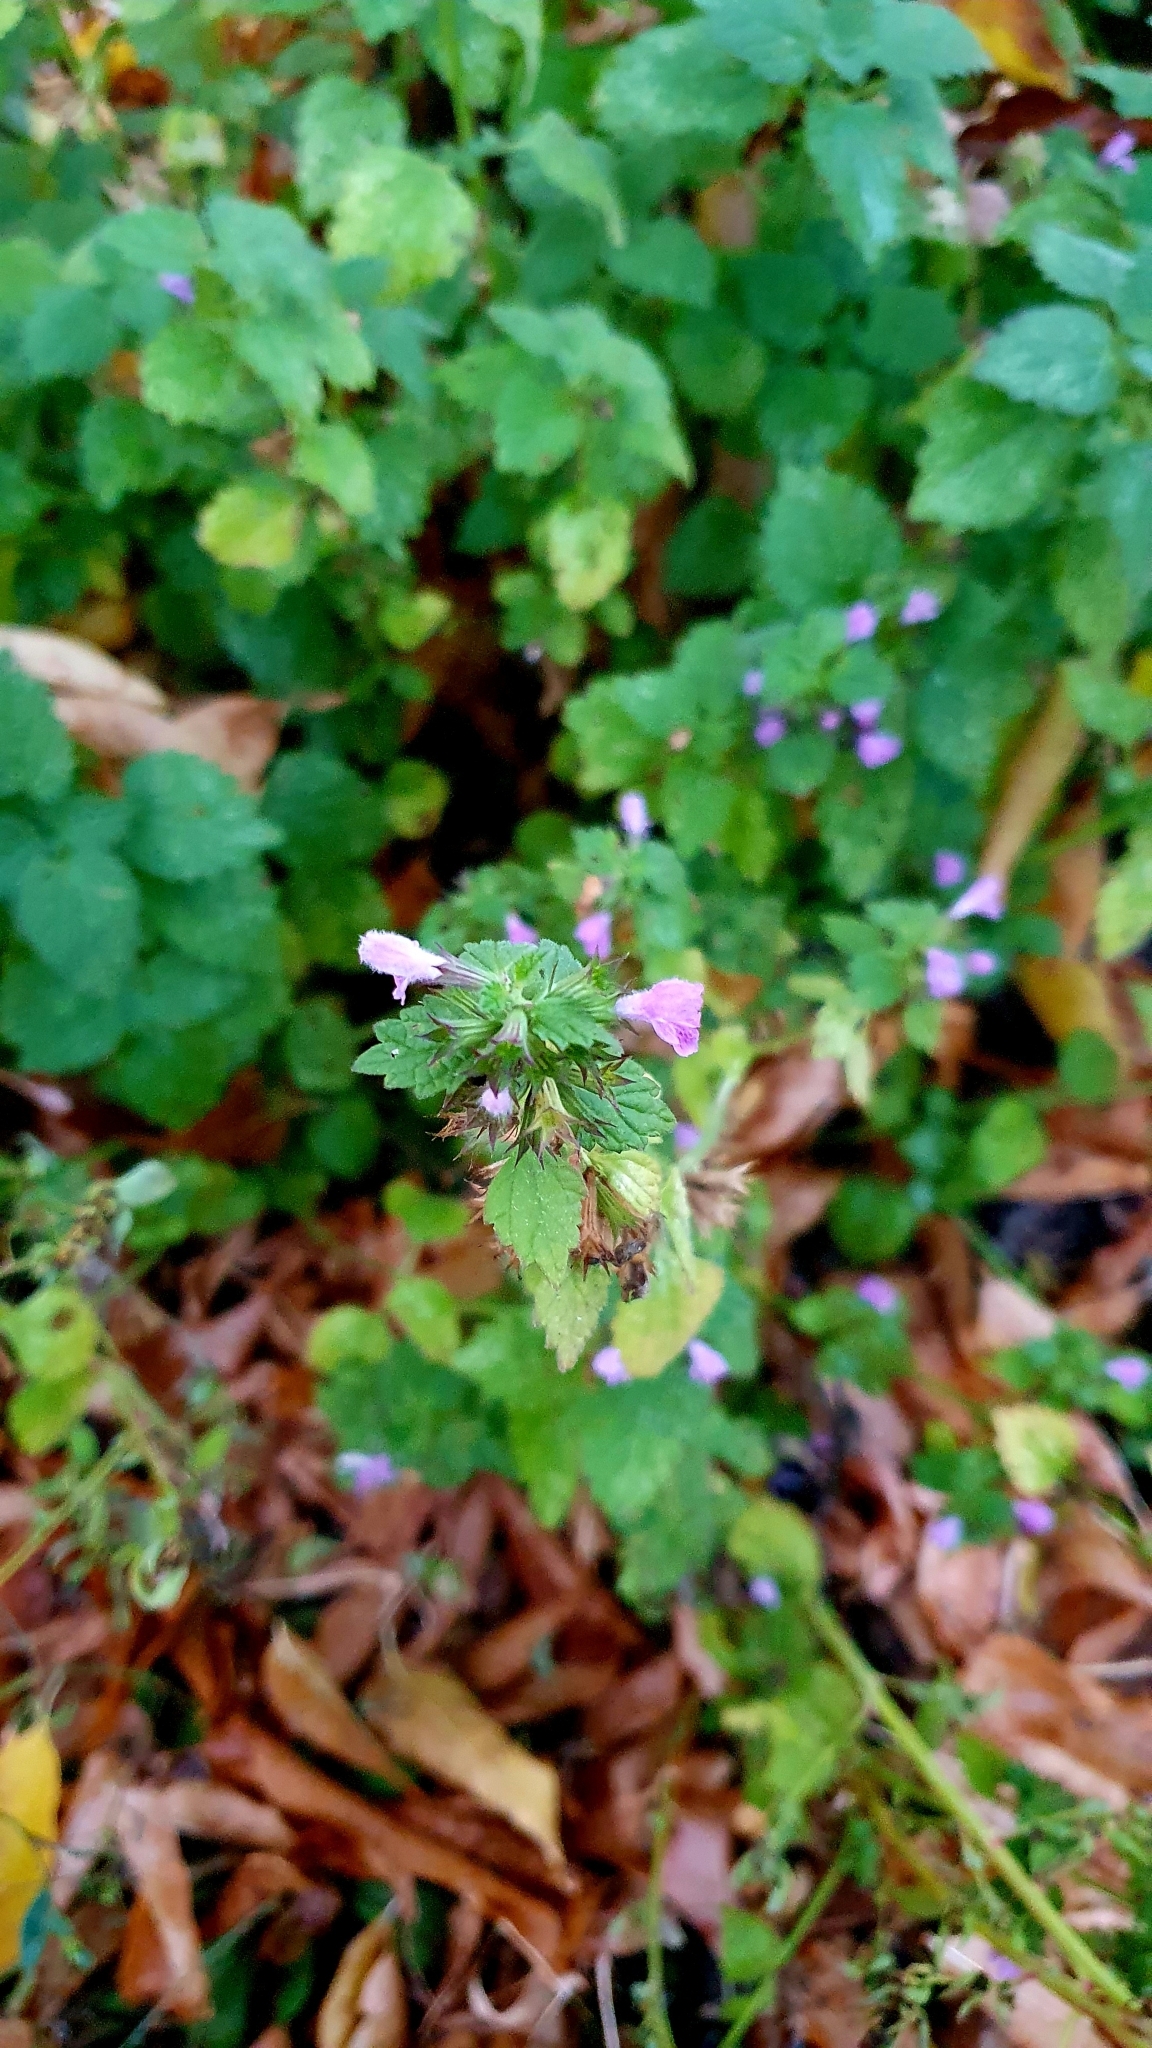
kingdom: Plantae
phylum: Tracheophyta
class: Magnoliopsida
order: Lamiales
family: Lamiaceae
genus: Ballota
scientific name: Ballota nigra
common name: Black horehound
